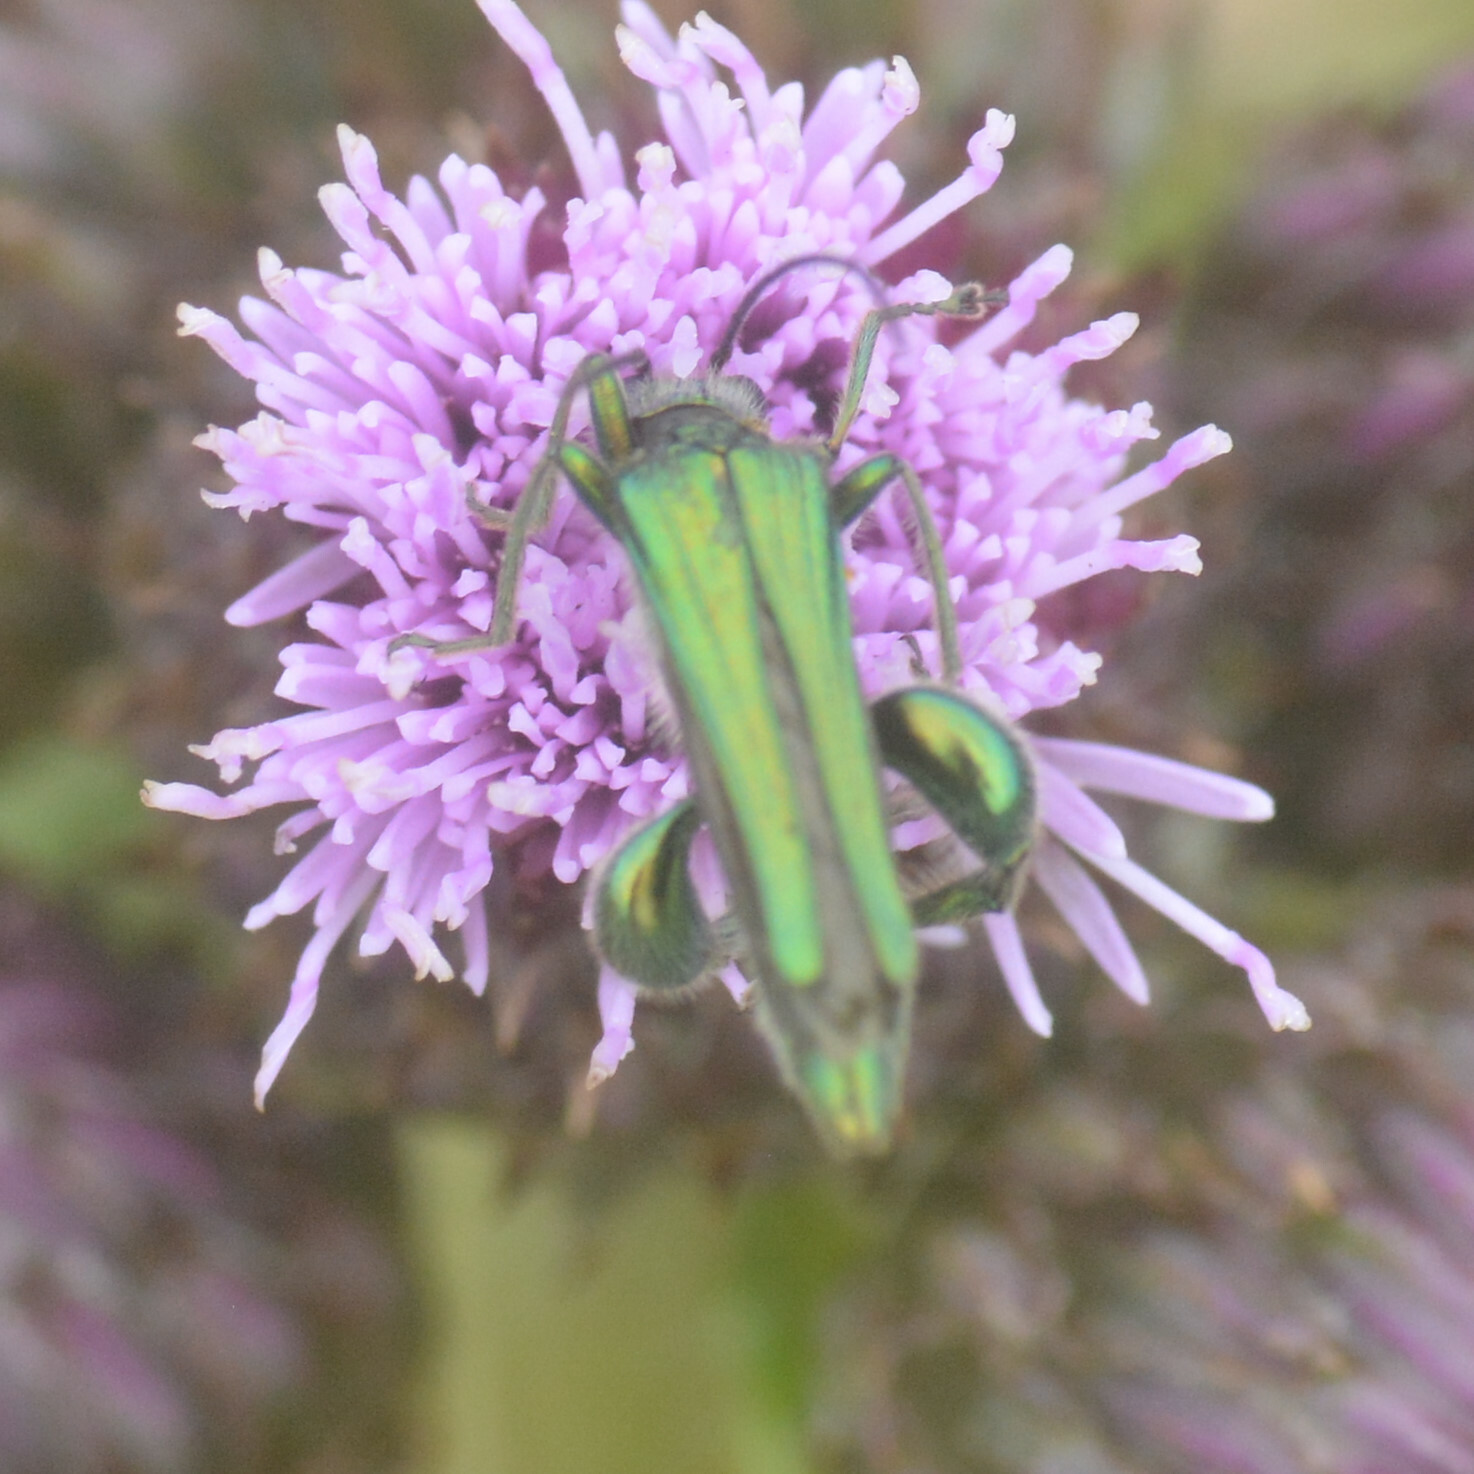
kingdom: Animalia
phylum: Arthropoda
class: Insecta
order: Coleoptera
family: Oedemeridae
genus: Oedemera
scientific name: Oedemera nobilis
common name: Swollen-thighed beetle
